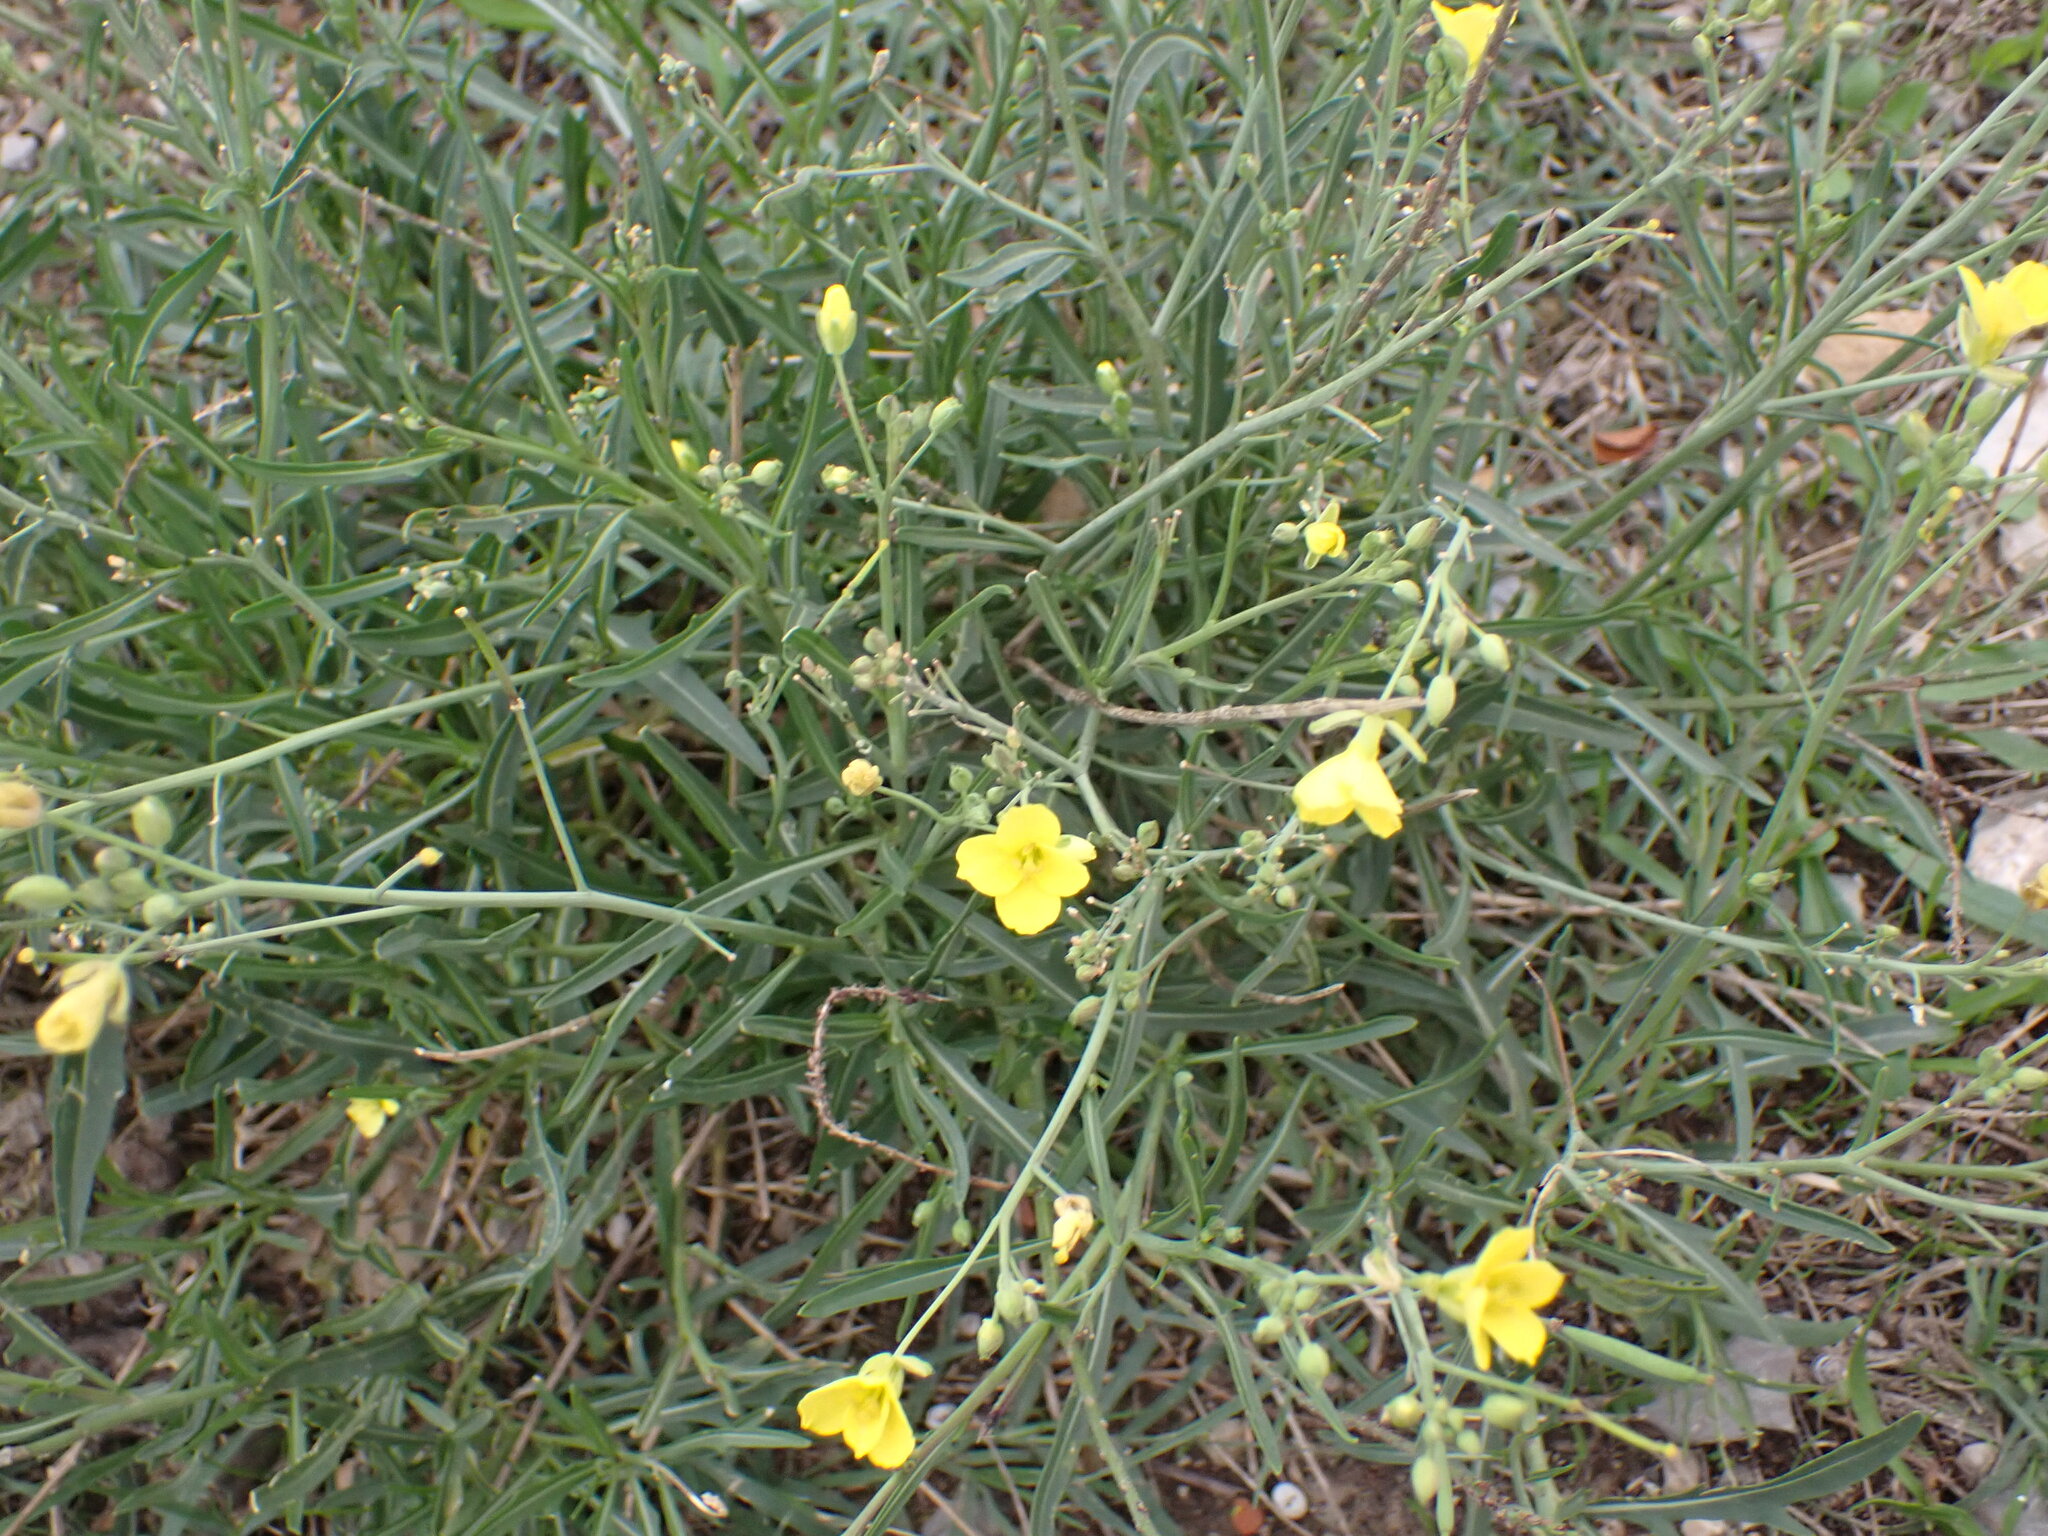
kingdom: Plantae
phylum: Tracheophyta
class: Magnoliopsida
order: Brassicales
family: Brassicaceae
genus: Diplotaxis
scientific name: Diplotaxis tenuifolia
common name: Perennial wall-rocket
